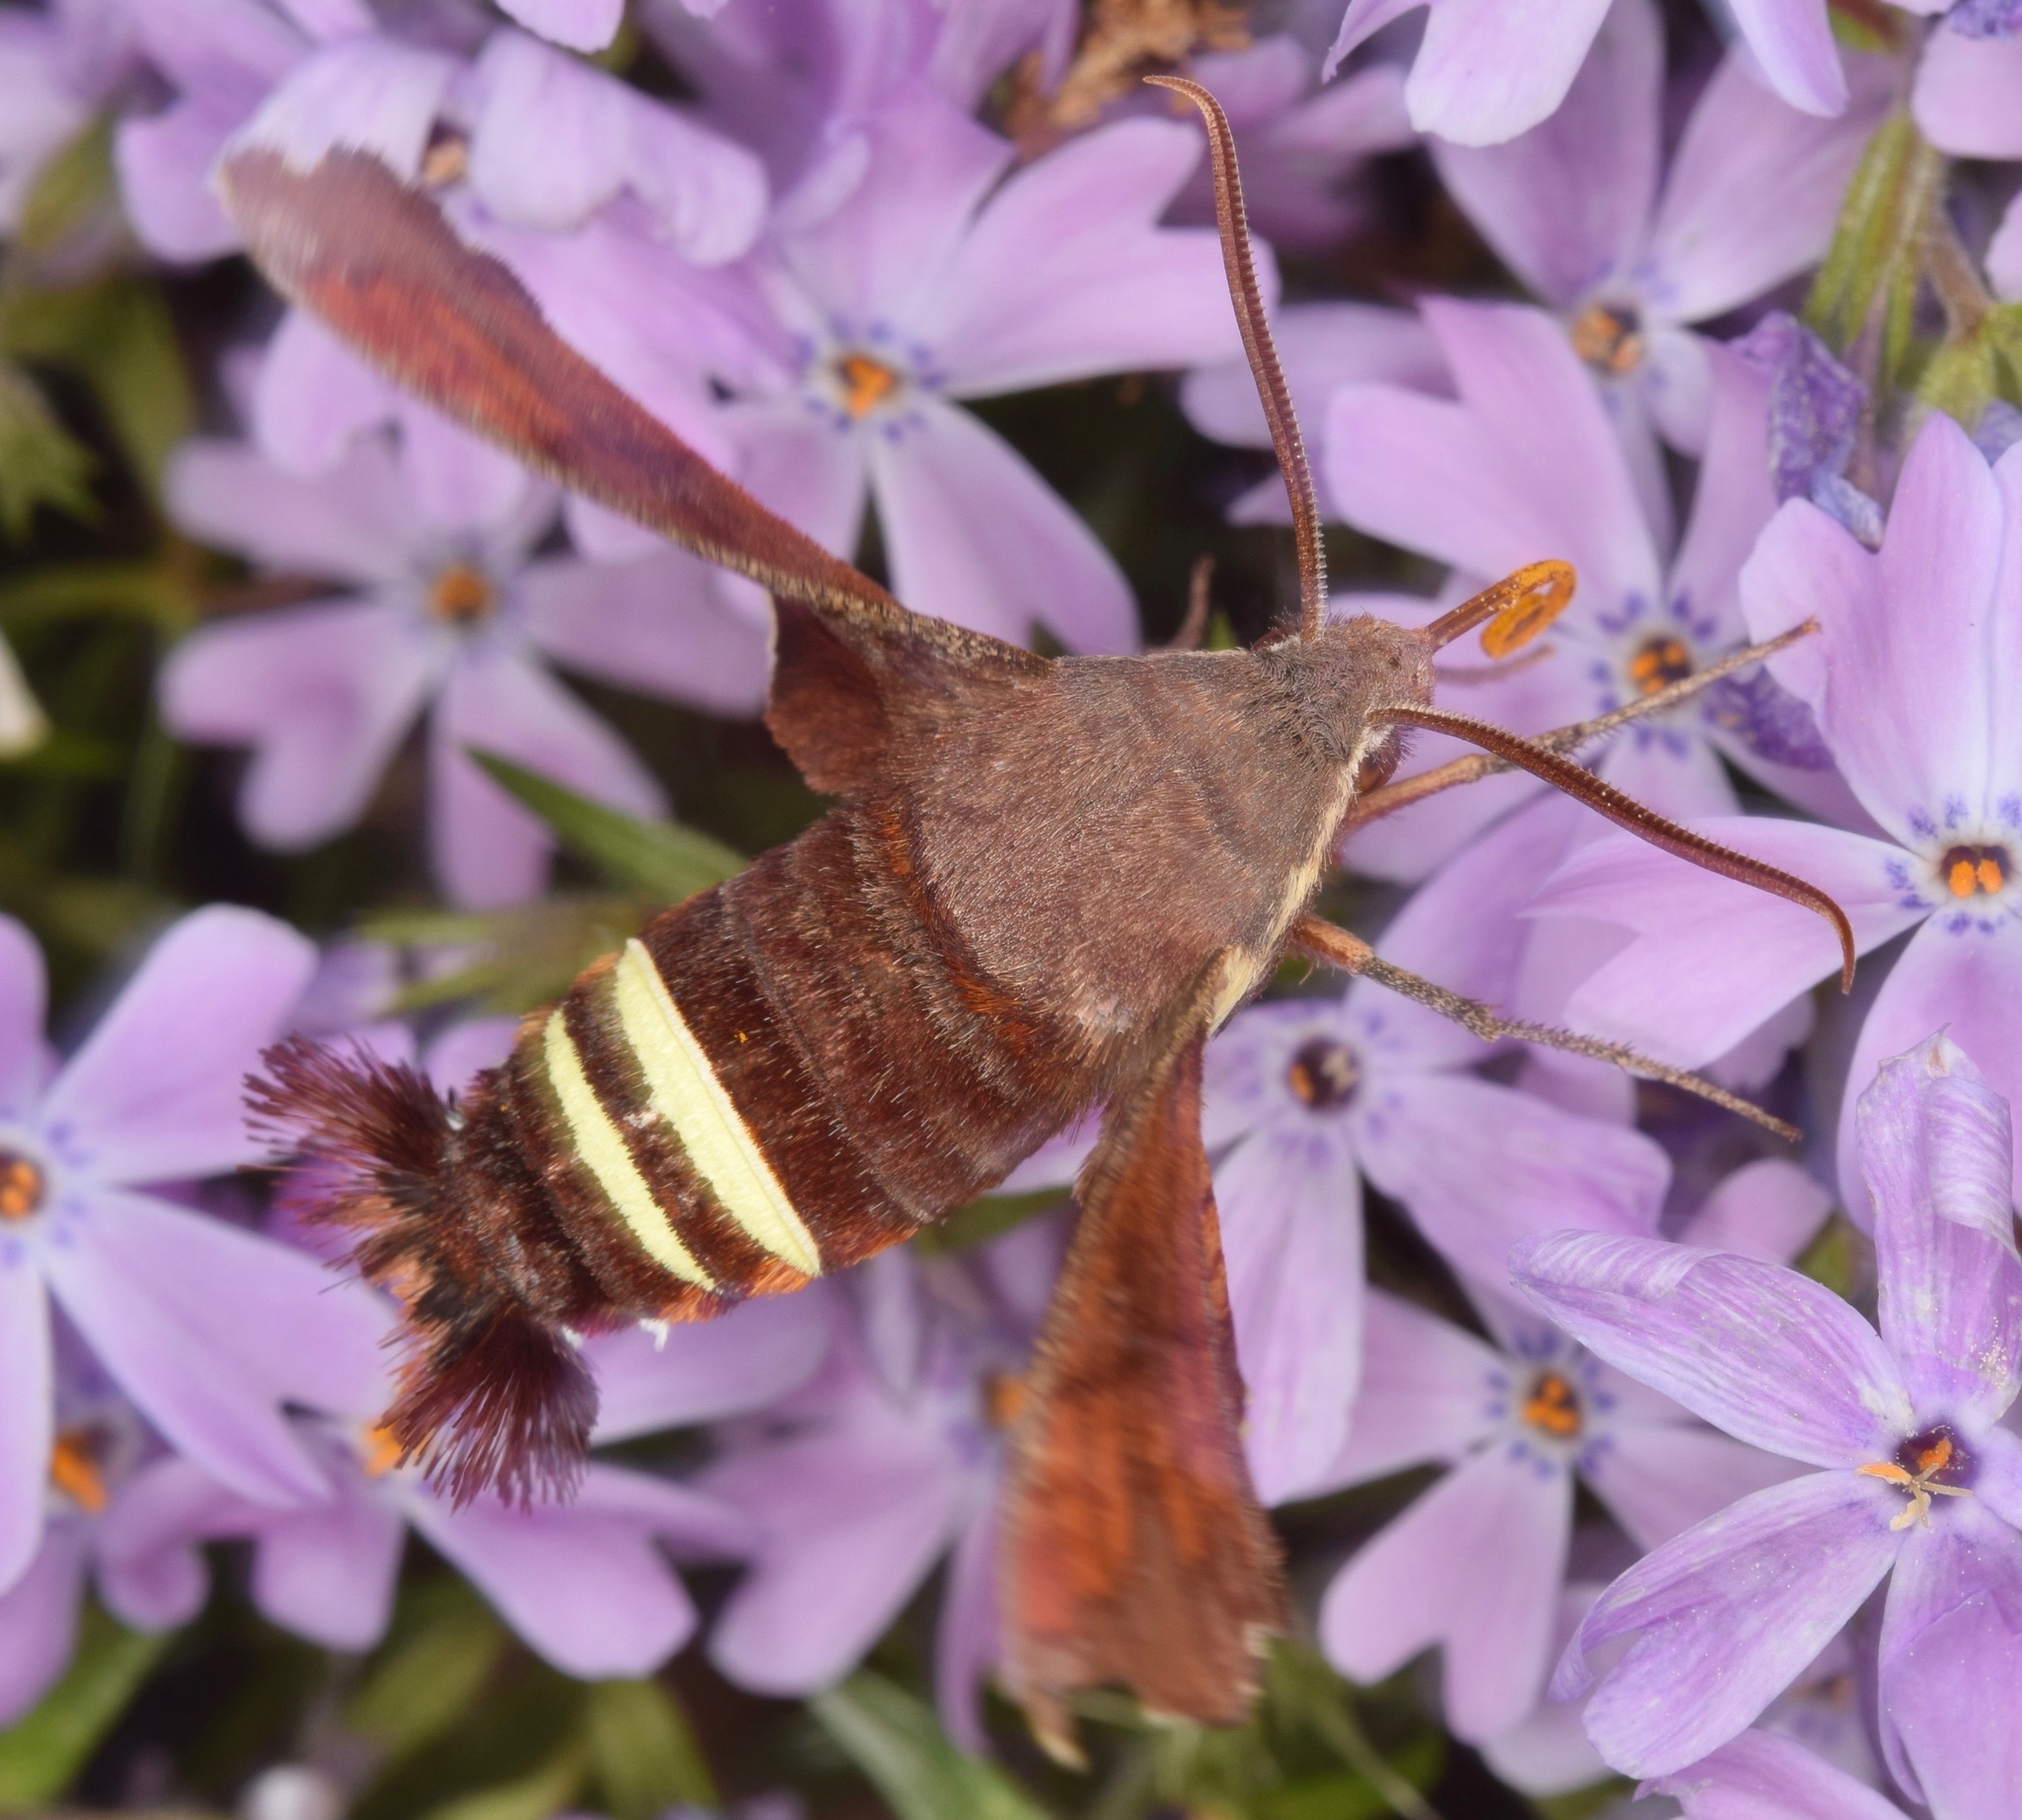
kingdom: Animalia
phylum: Arthropoda
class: Insecta
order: Lepidoptera
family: Sphingidae
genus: Amphion
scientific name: Amphion floridensis
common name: Nessus sphinx
